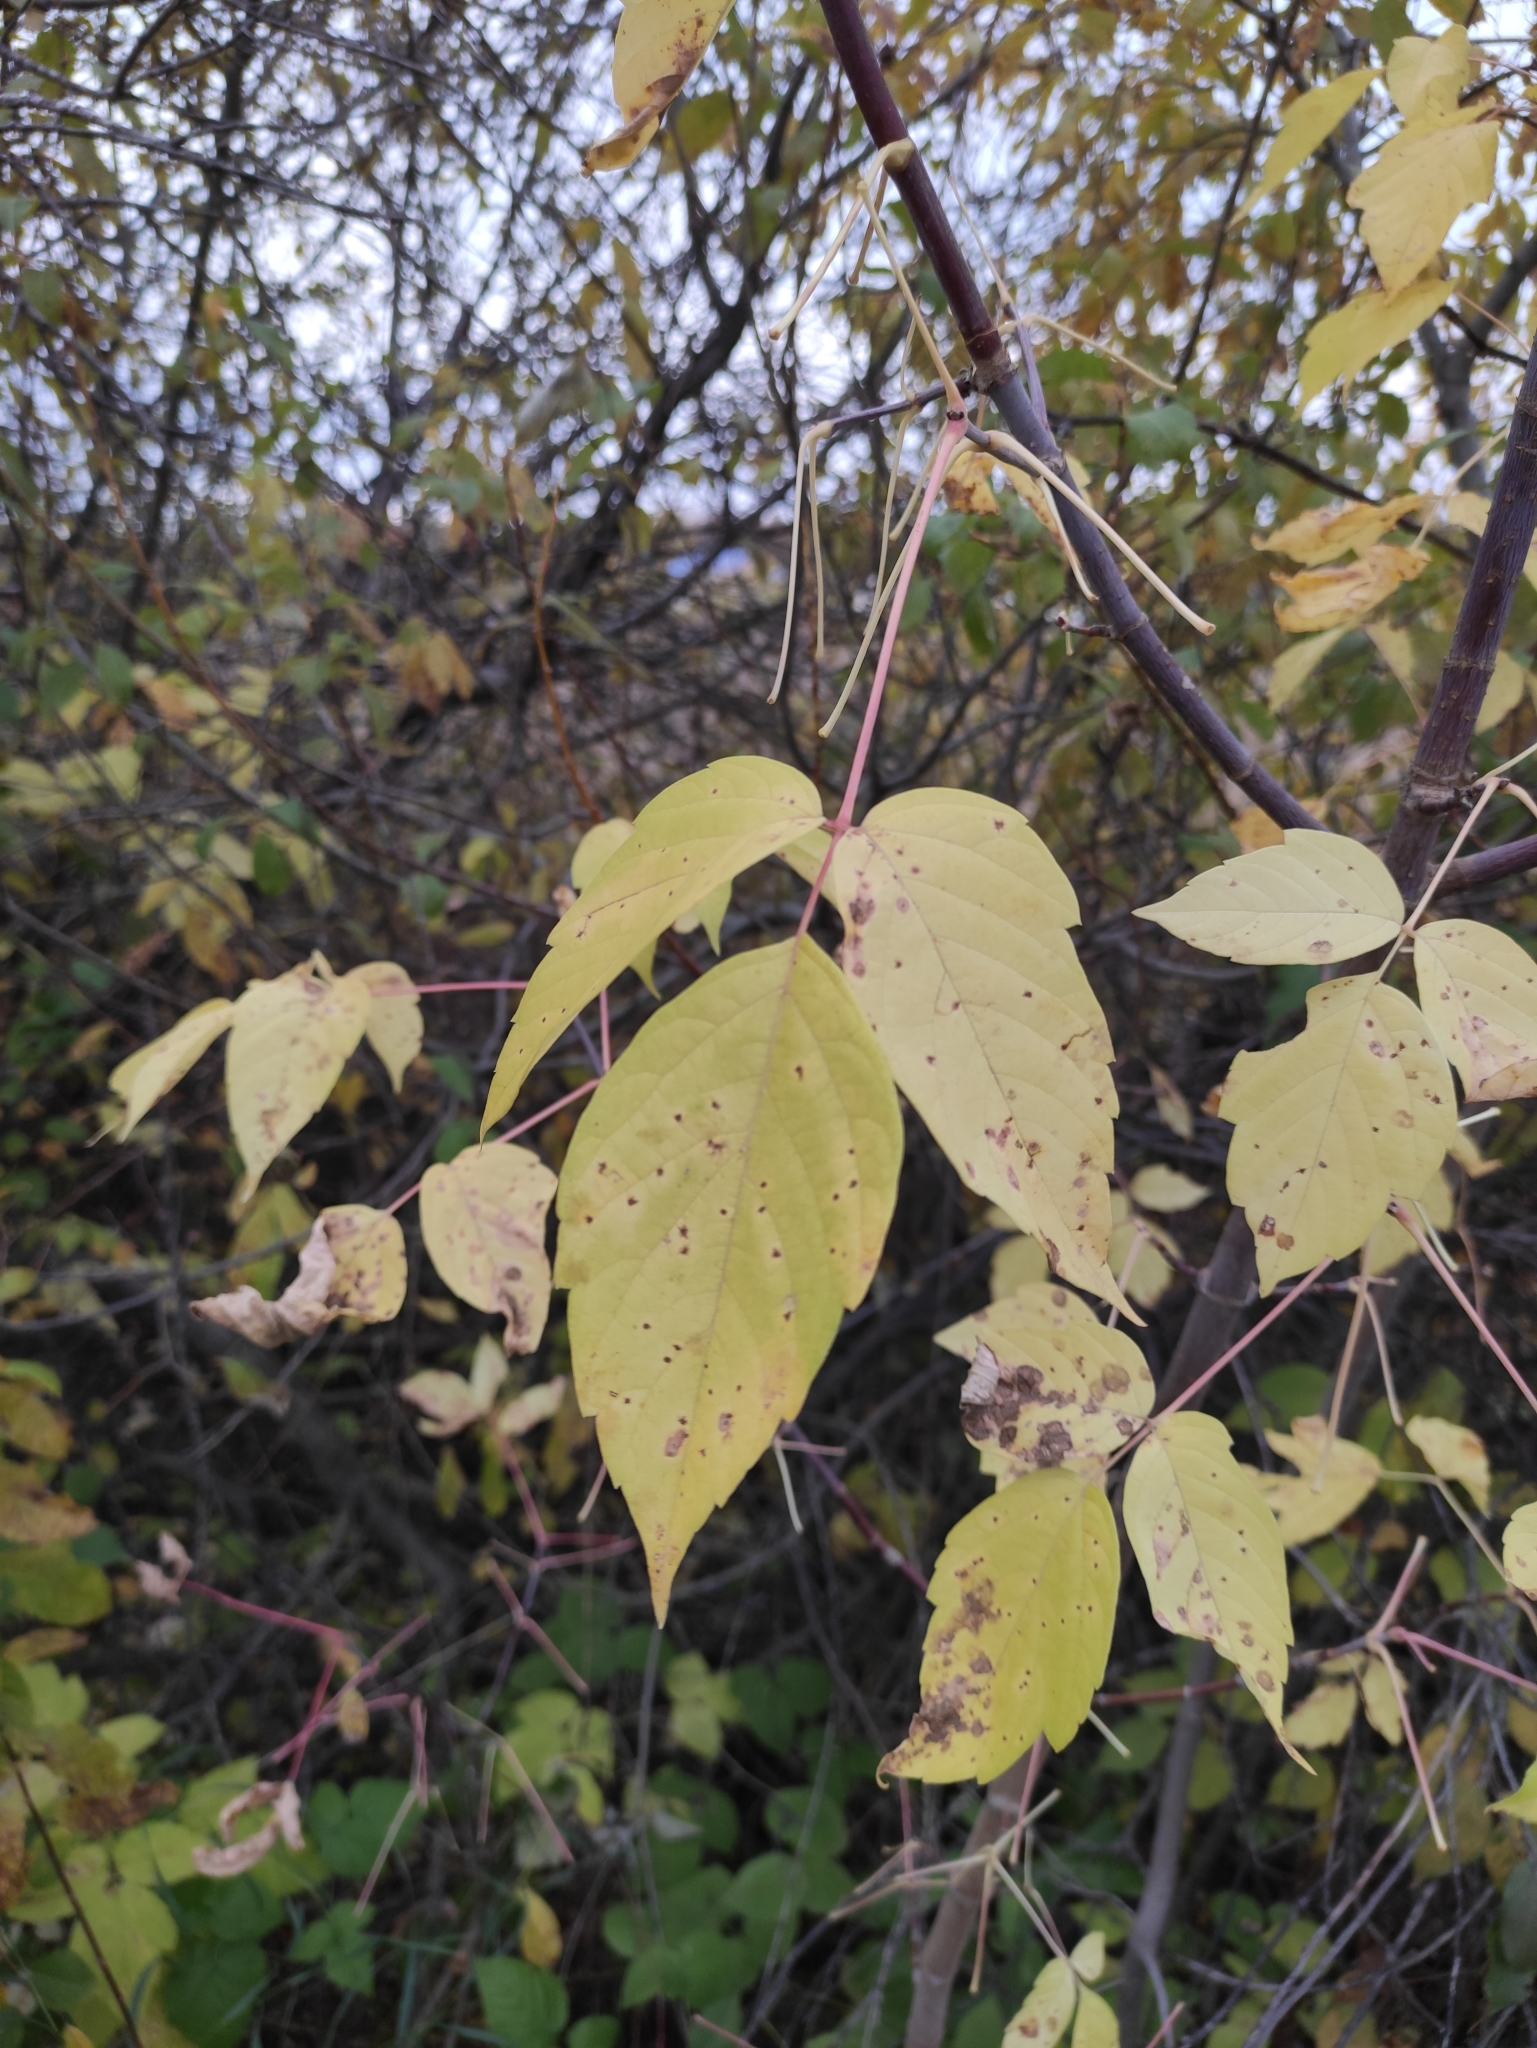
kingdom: Plantae
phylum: Tracheophyta
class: Magnoliopsida
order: Sapindales
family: Sapindaceae
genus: Acer
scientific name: Acer negundo
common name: Ashleaf maple
